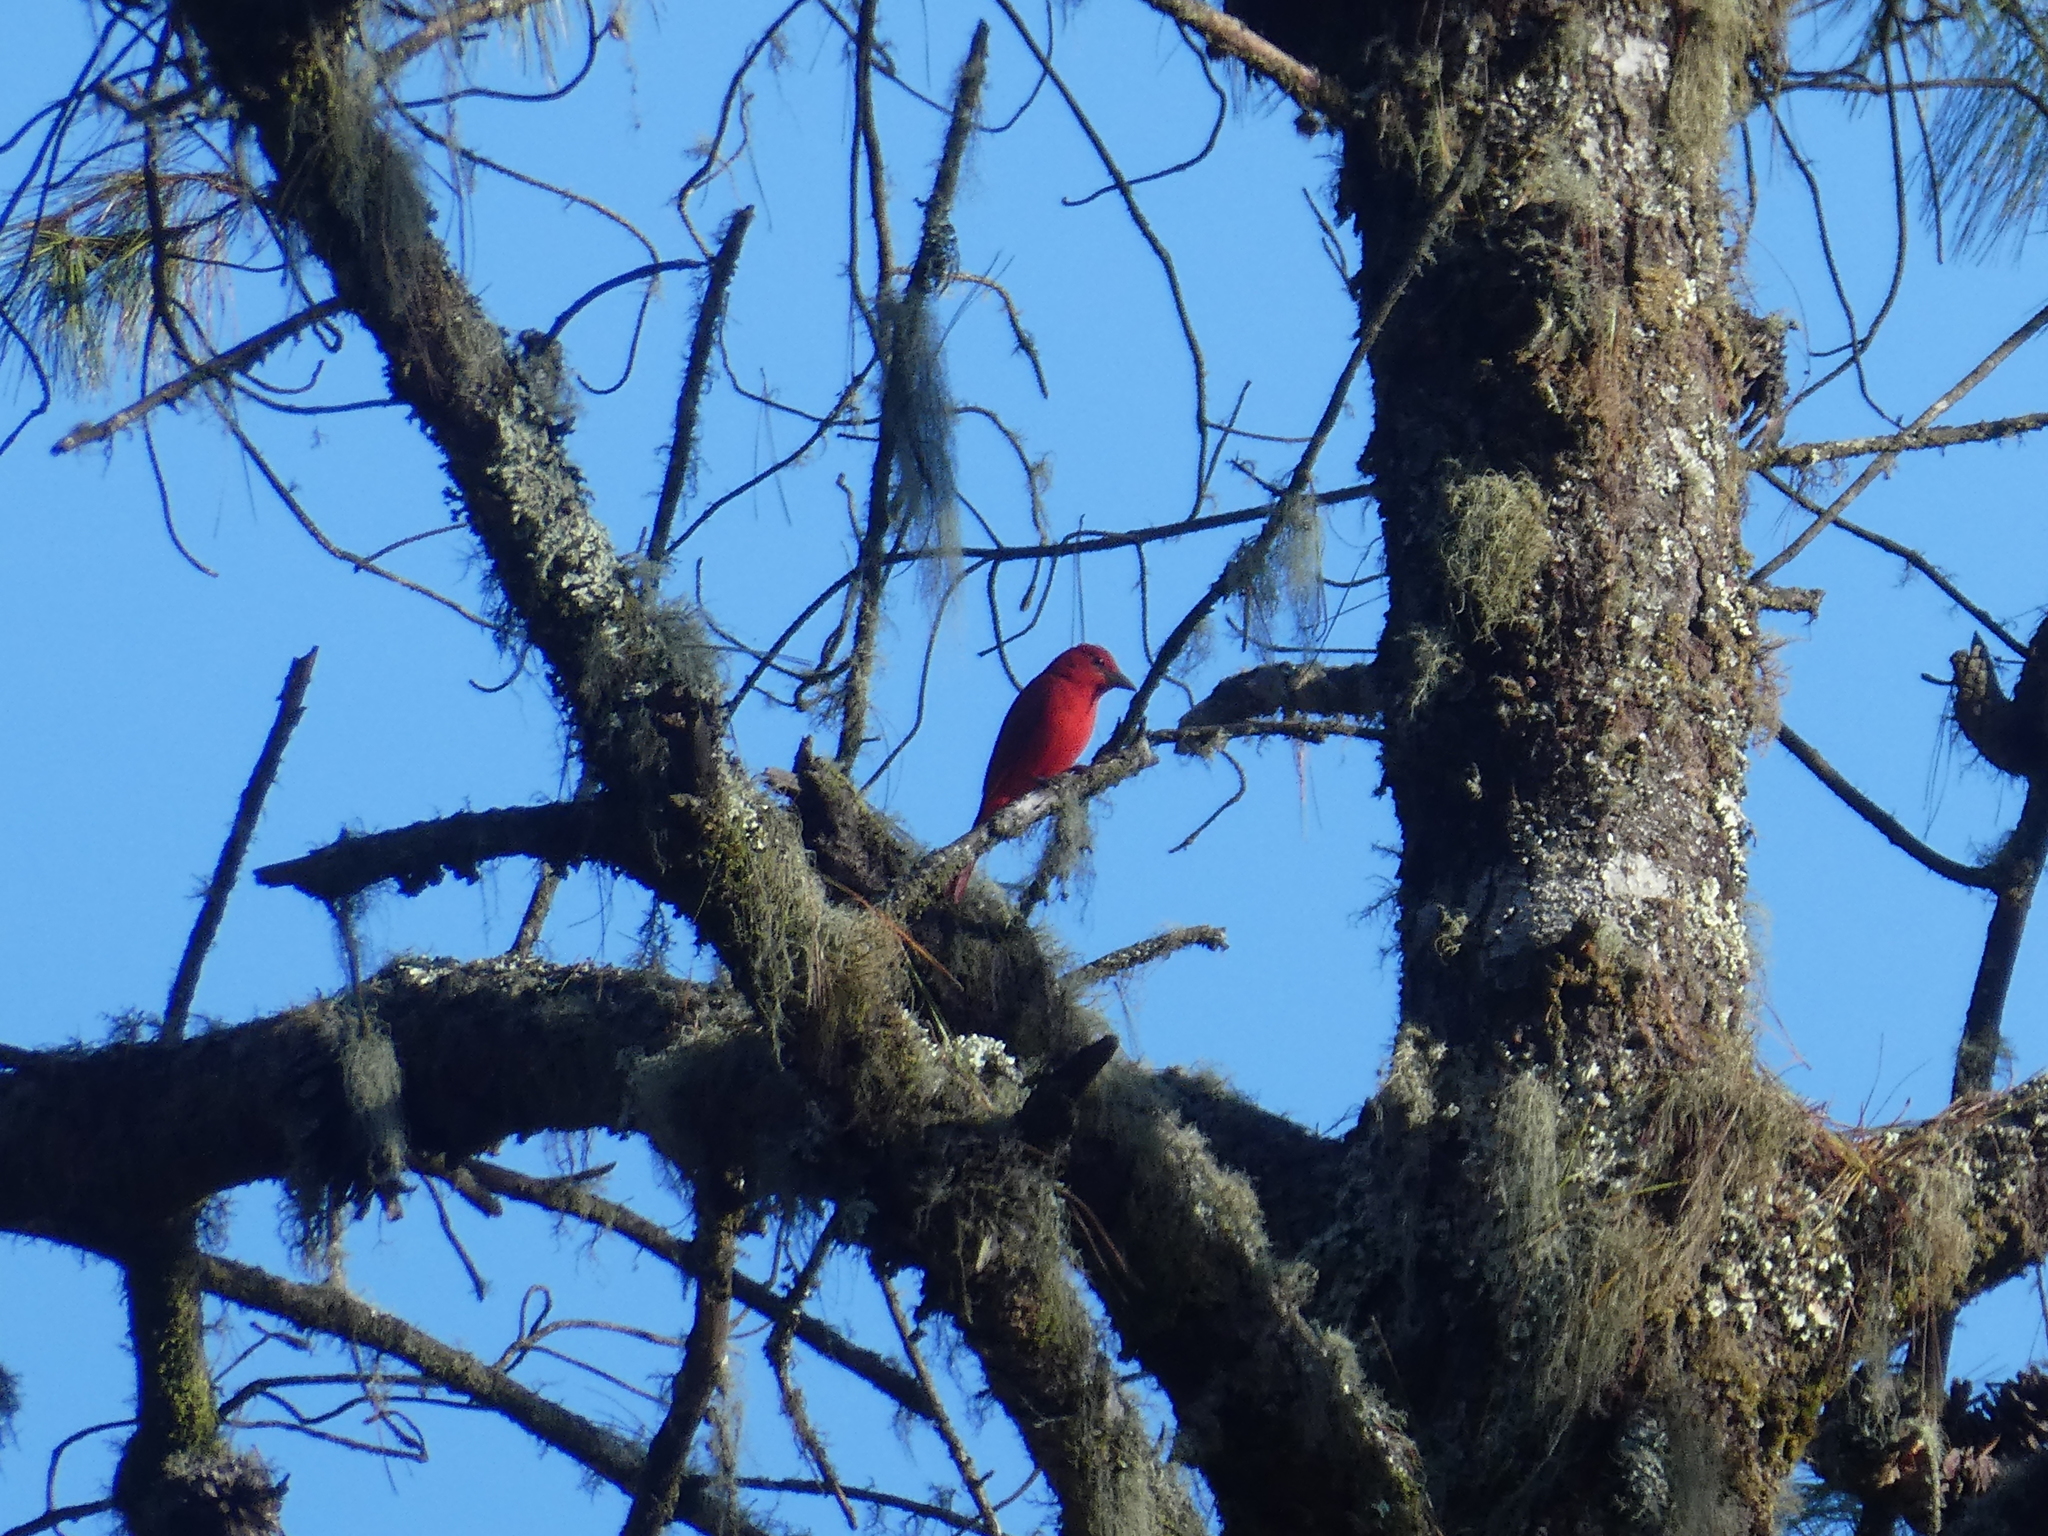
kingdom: Animalia
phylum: Chordata
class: Aves
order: Passeriformes
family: Cardinalidae
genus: Piranga
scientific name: Piranga rubra
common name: Summer tanager
